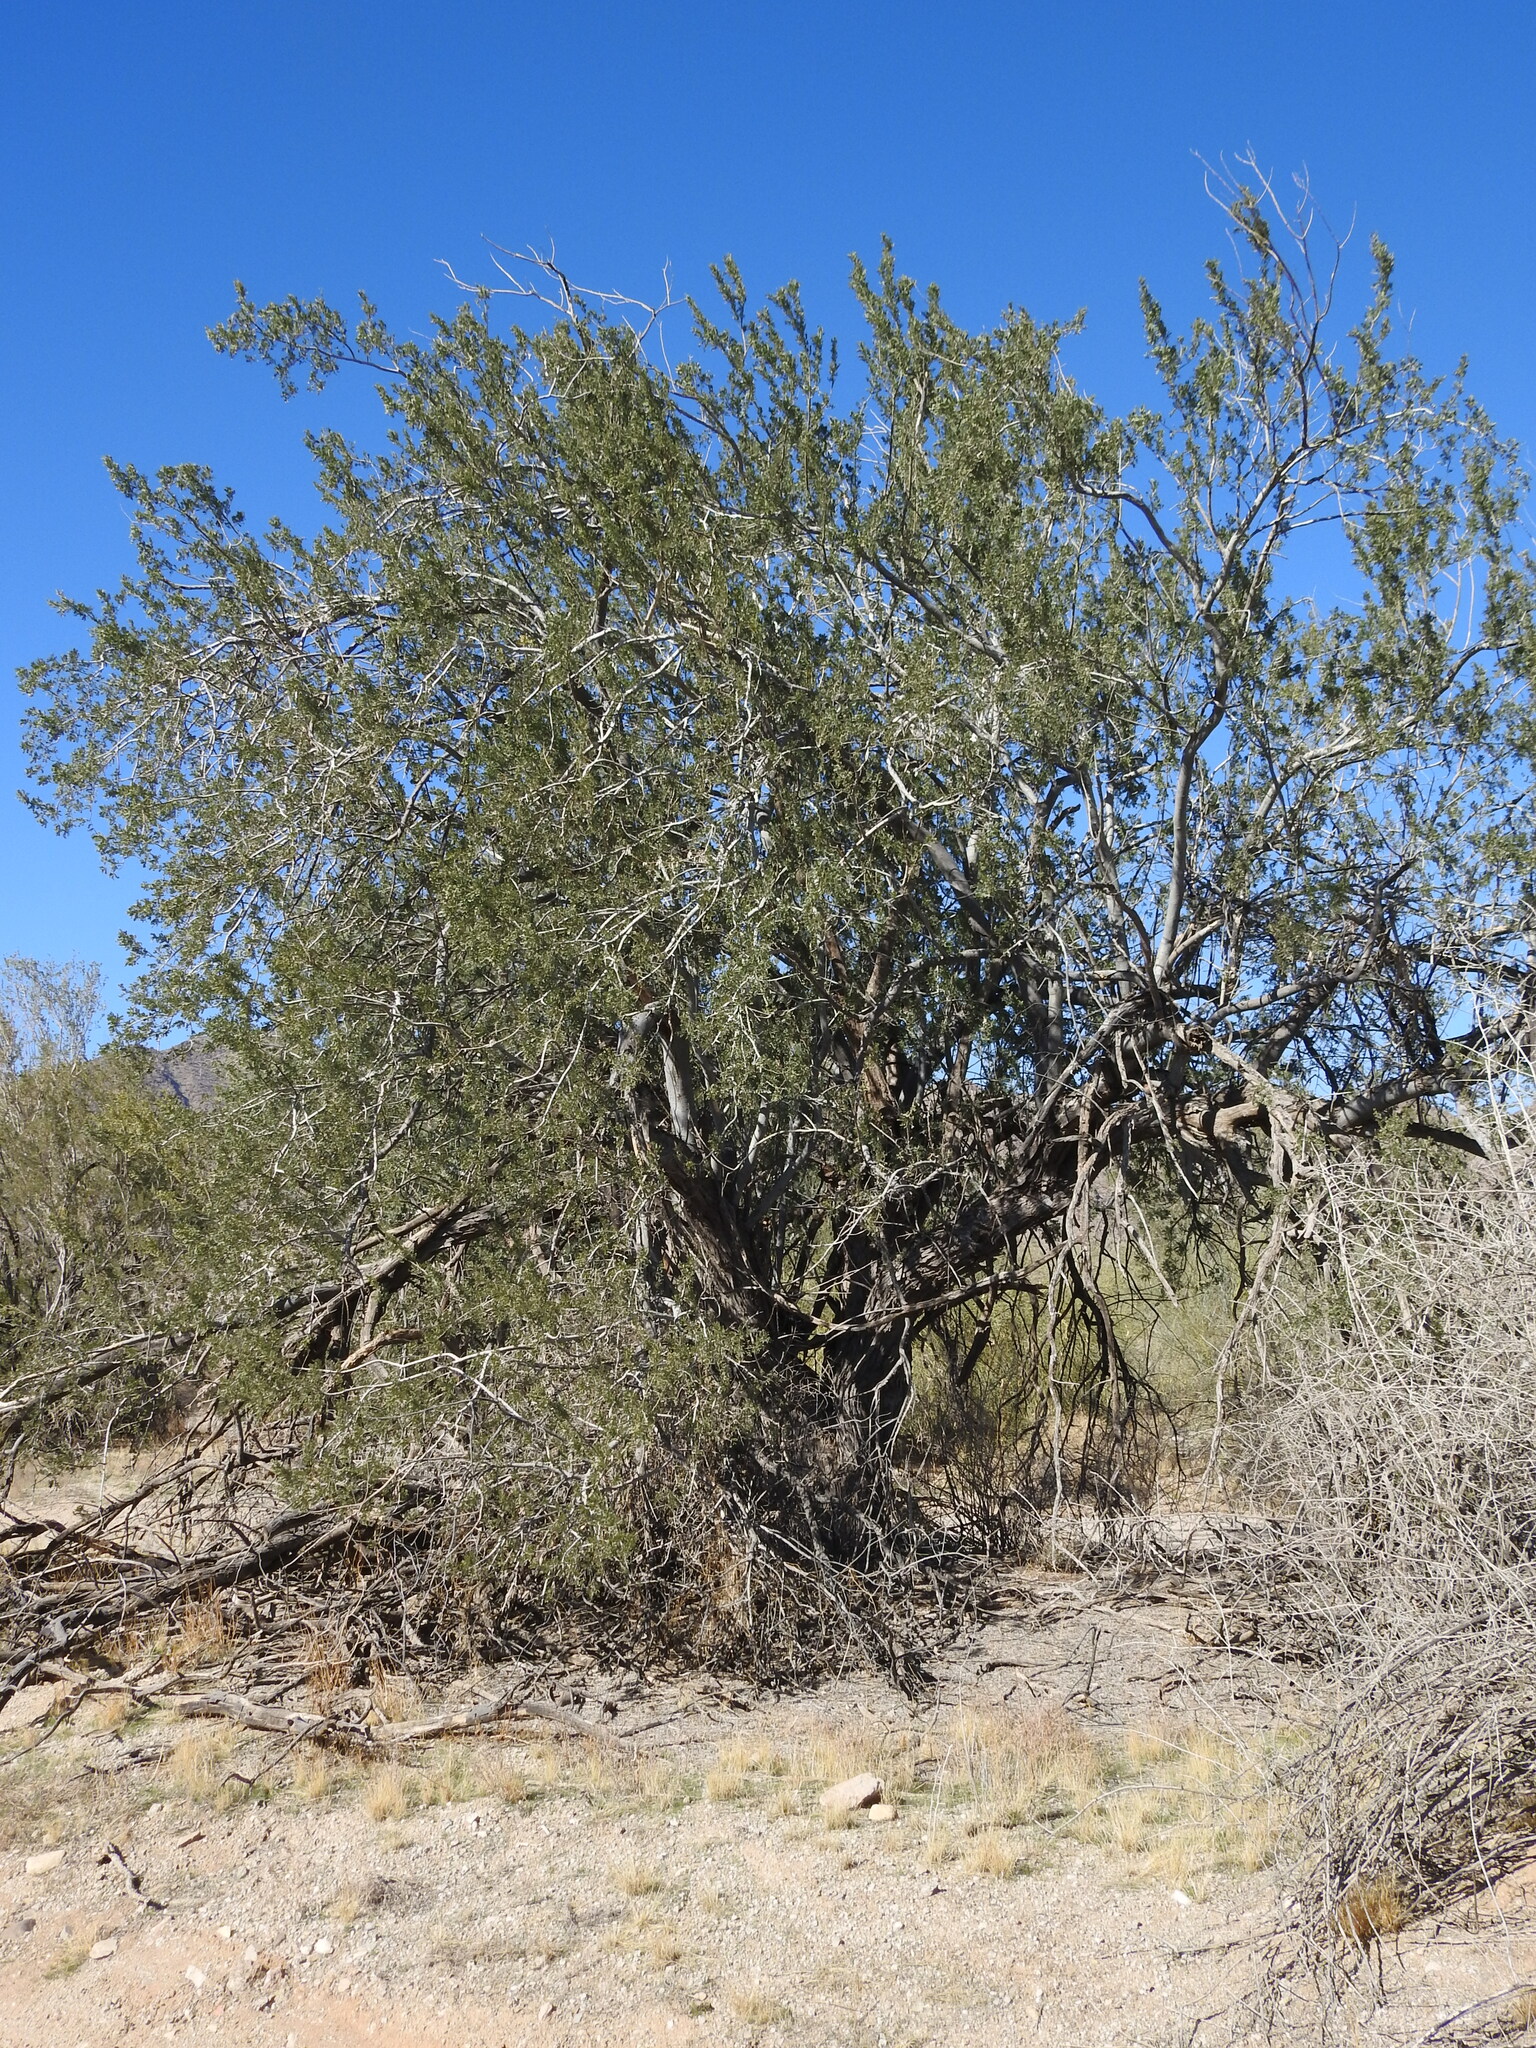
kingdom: Plantae
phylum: Tracheophyta
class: Magnoliopsida
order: Fabales
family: Fabaceae
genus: Olneya
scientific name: Olneya tesota
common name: Desert ironwood
